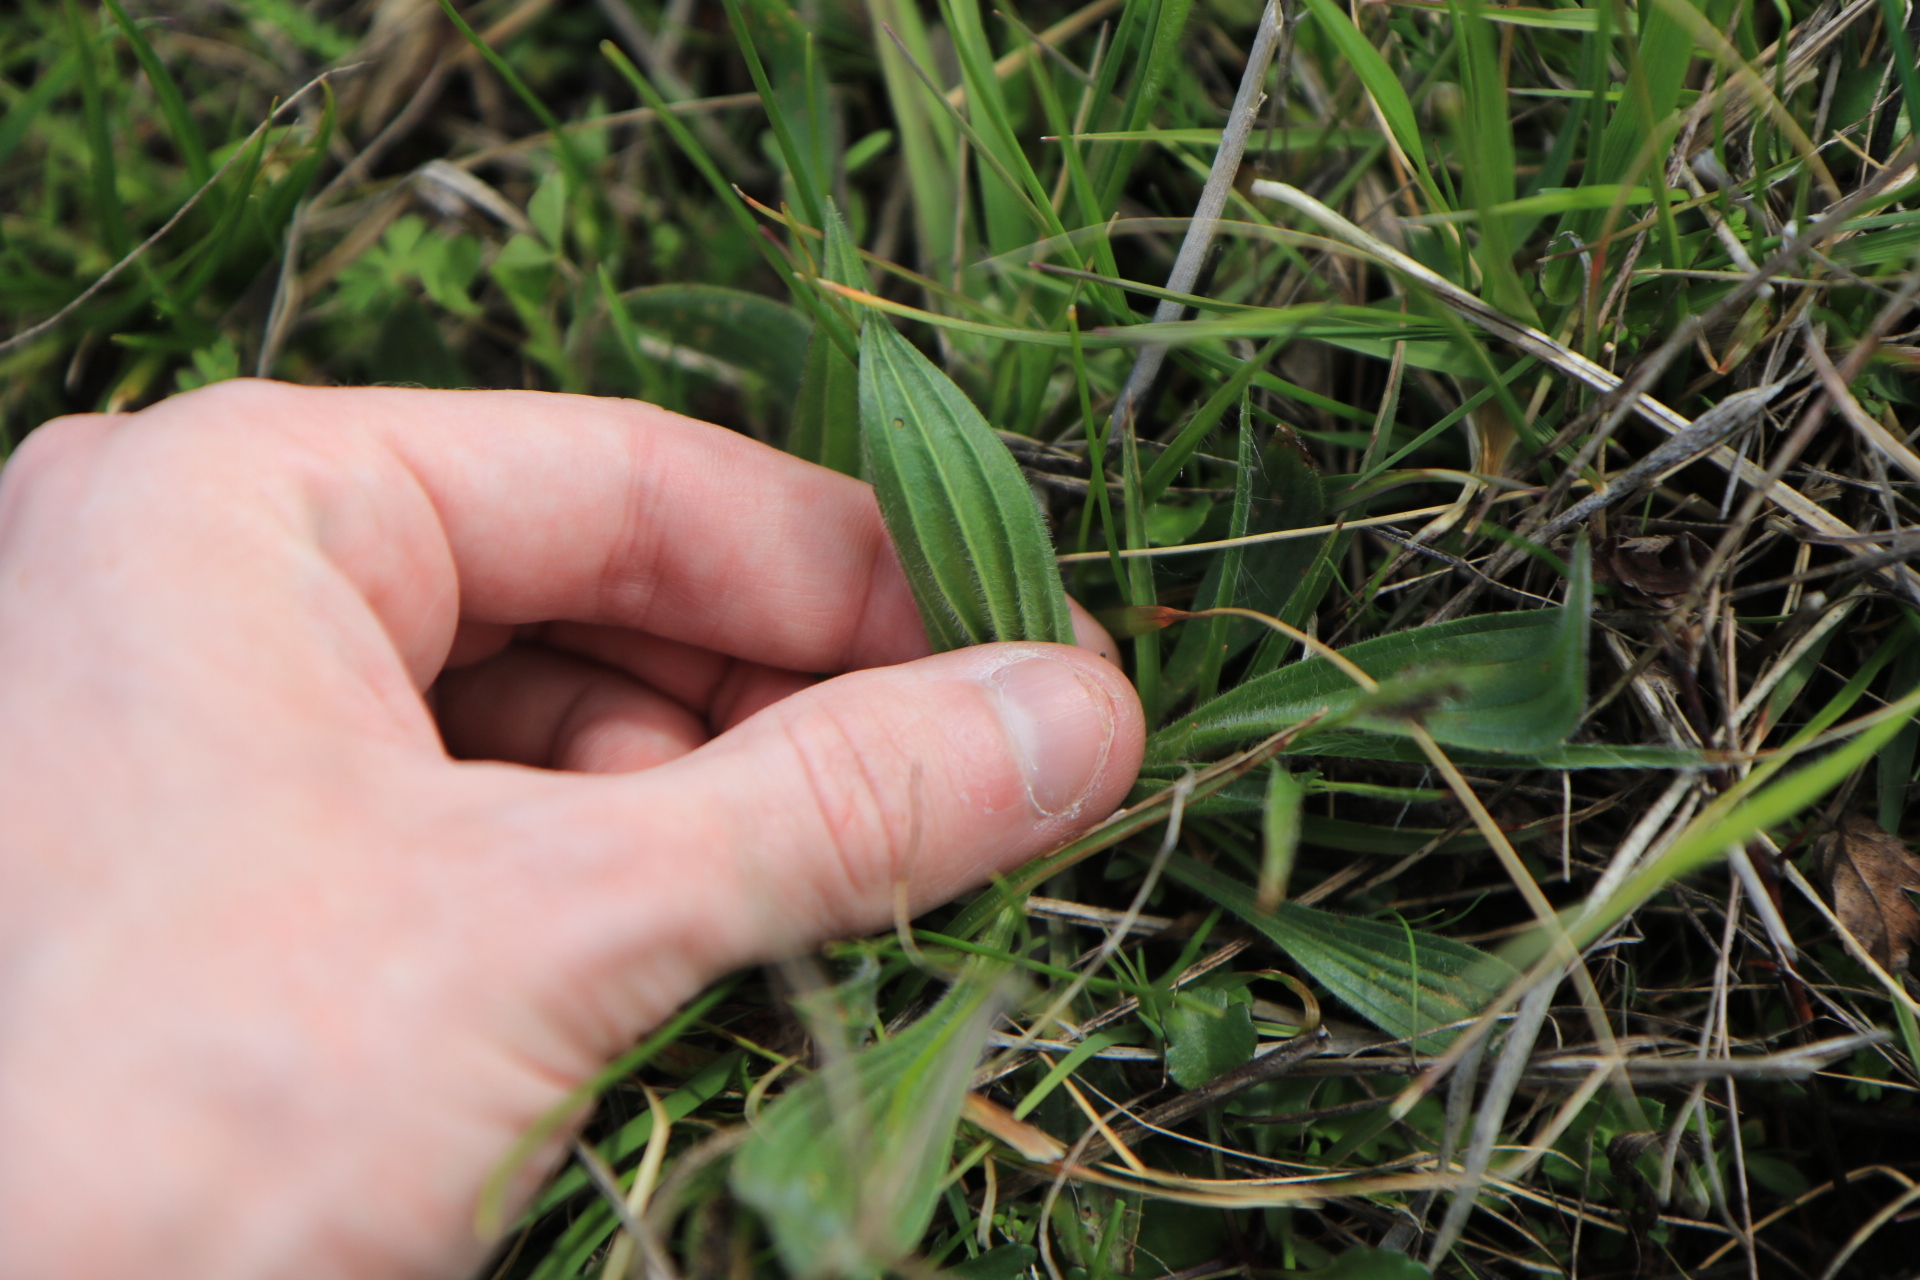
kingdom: Plantae
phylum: Tracheophyta
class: Magnoliopsida
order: Lamiales
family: Plantaginaceae
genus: Plantago
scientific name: Plantago lanceolata
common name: Ribwort plantain
